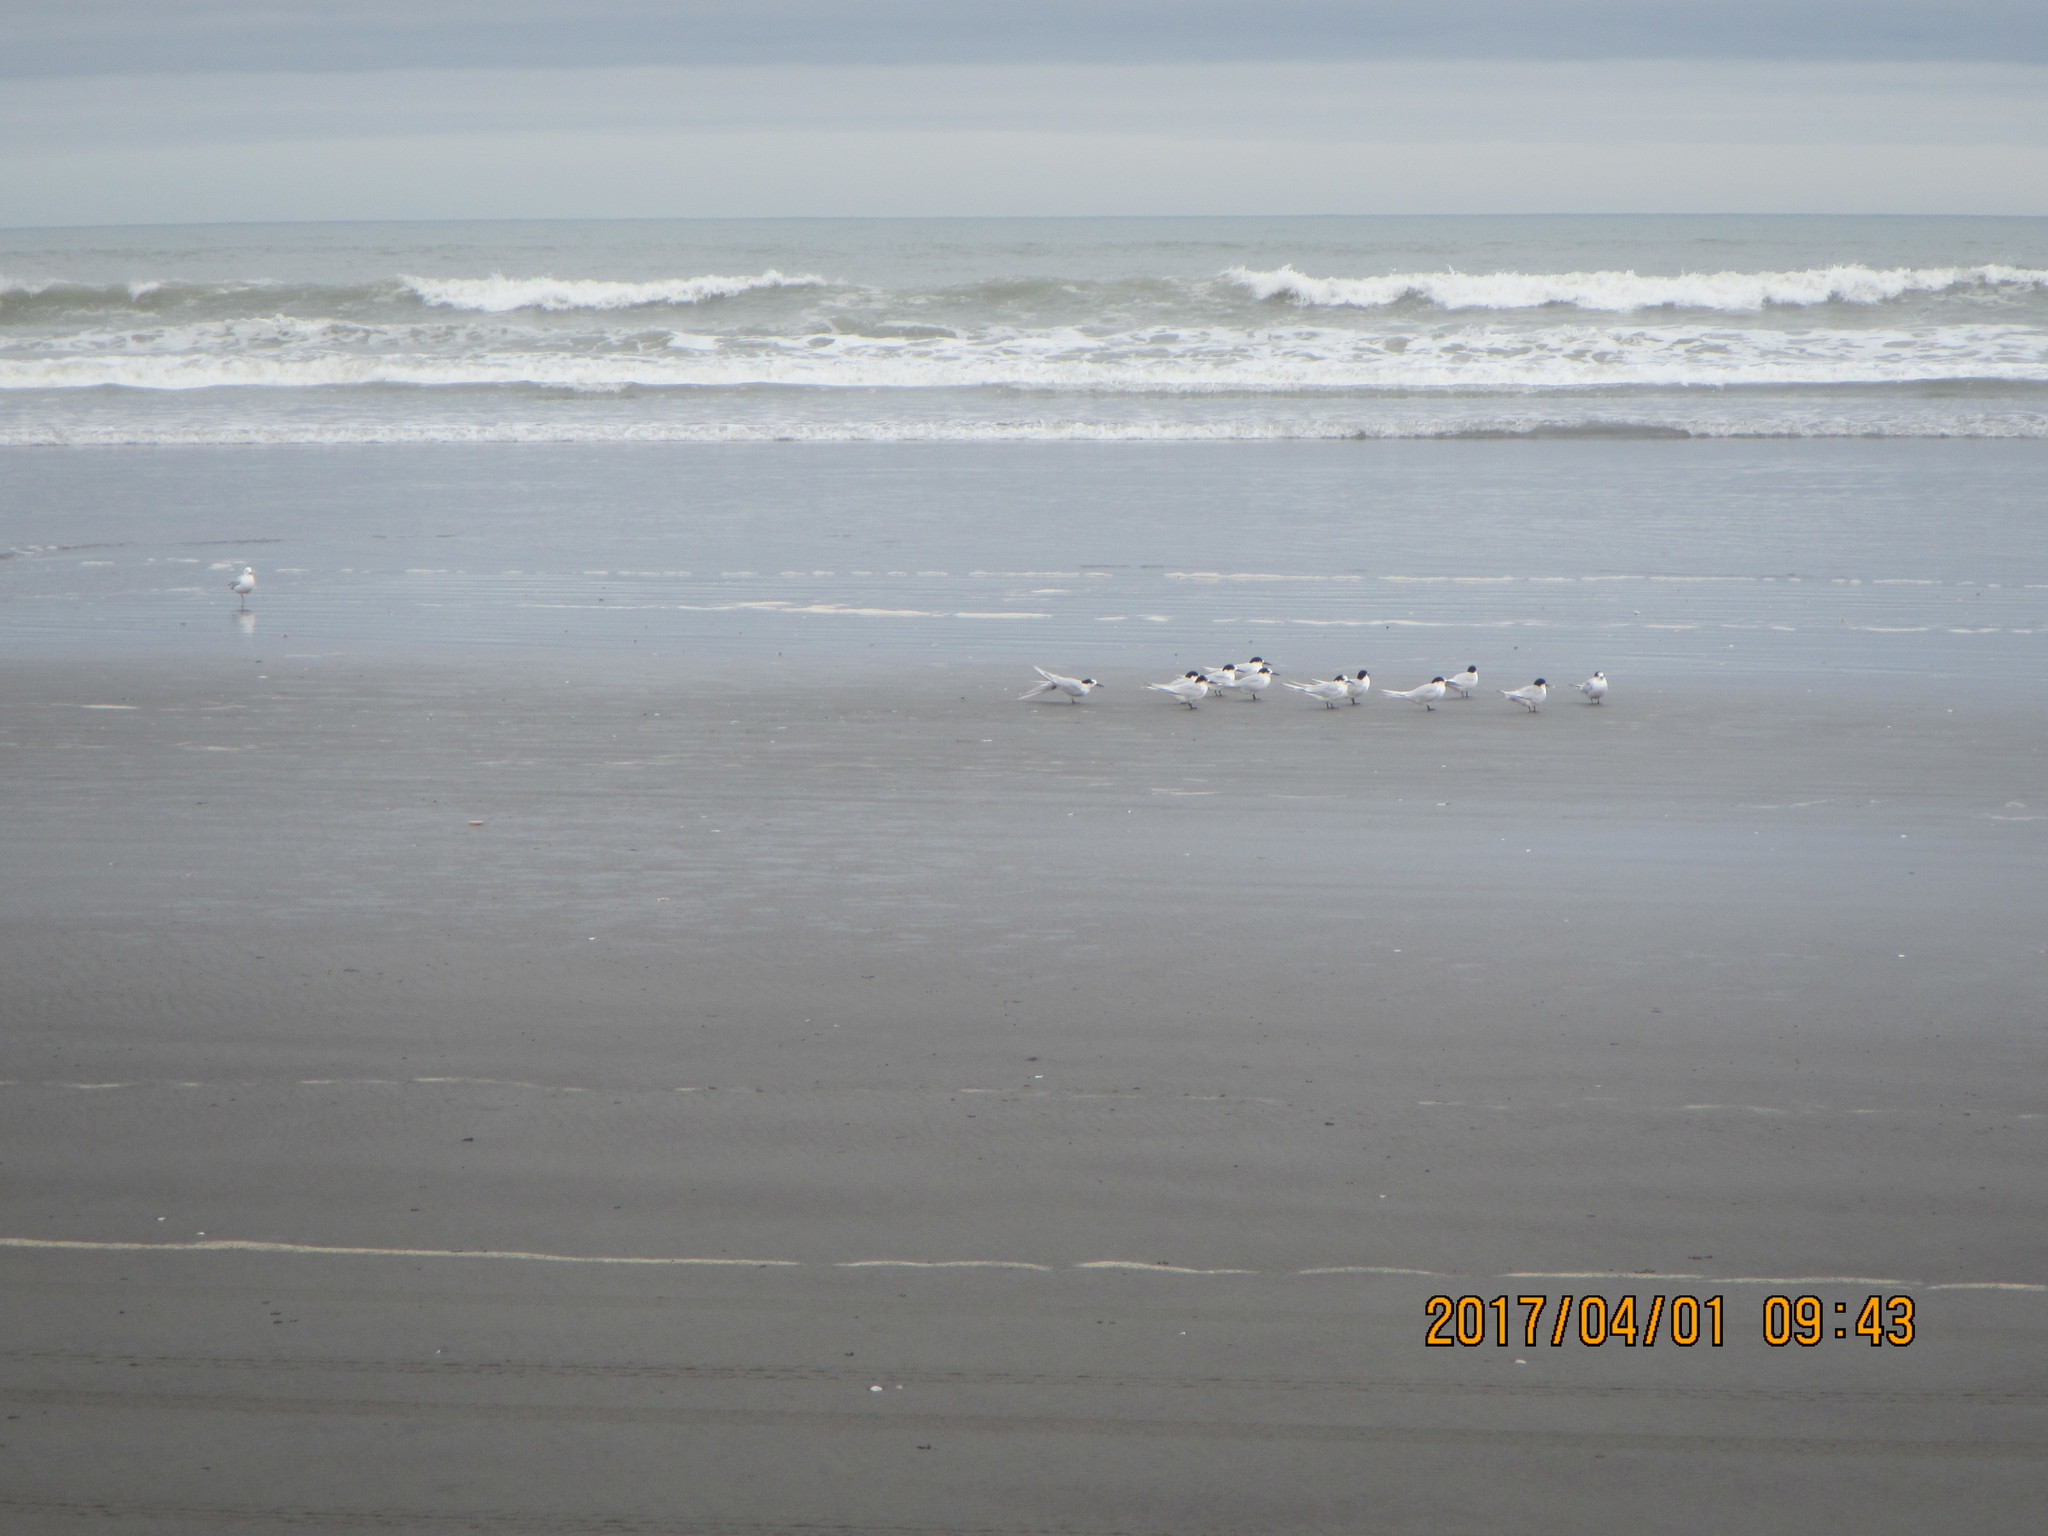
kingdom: Animalia
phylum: Chordata
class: Aves
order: Charadriiformes
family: Laridae
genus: Sterna
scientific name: Sterna striata
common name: White-fronted tern
